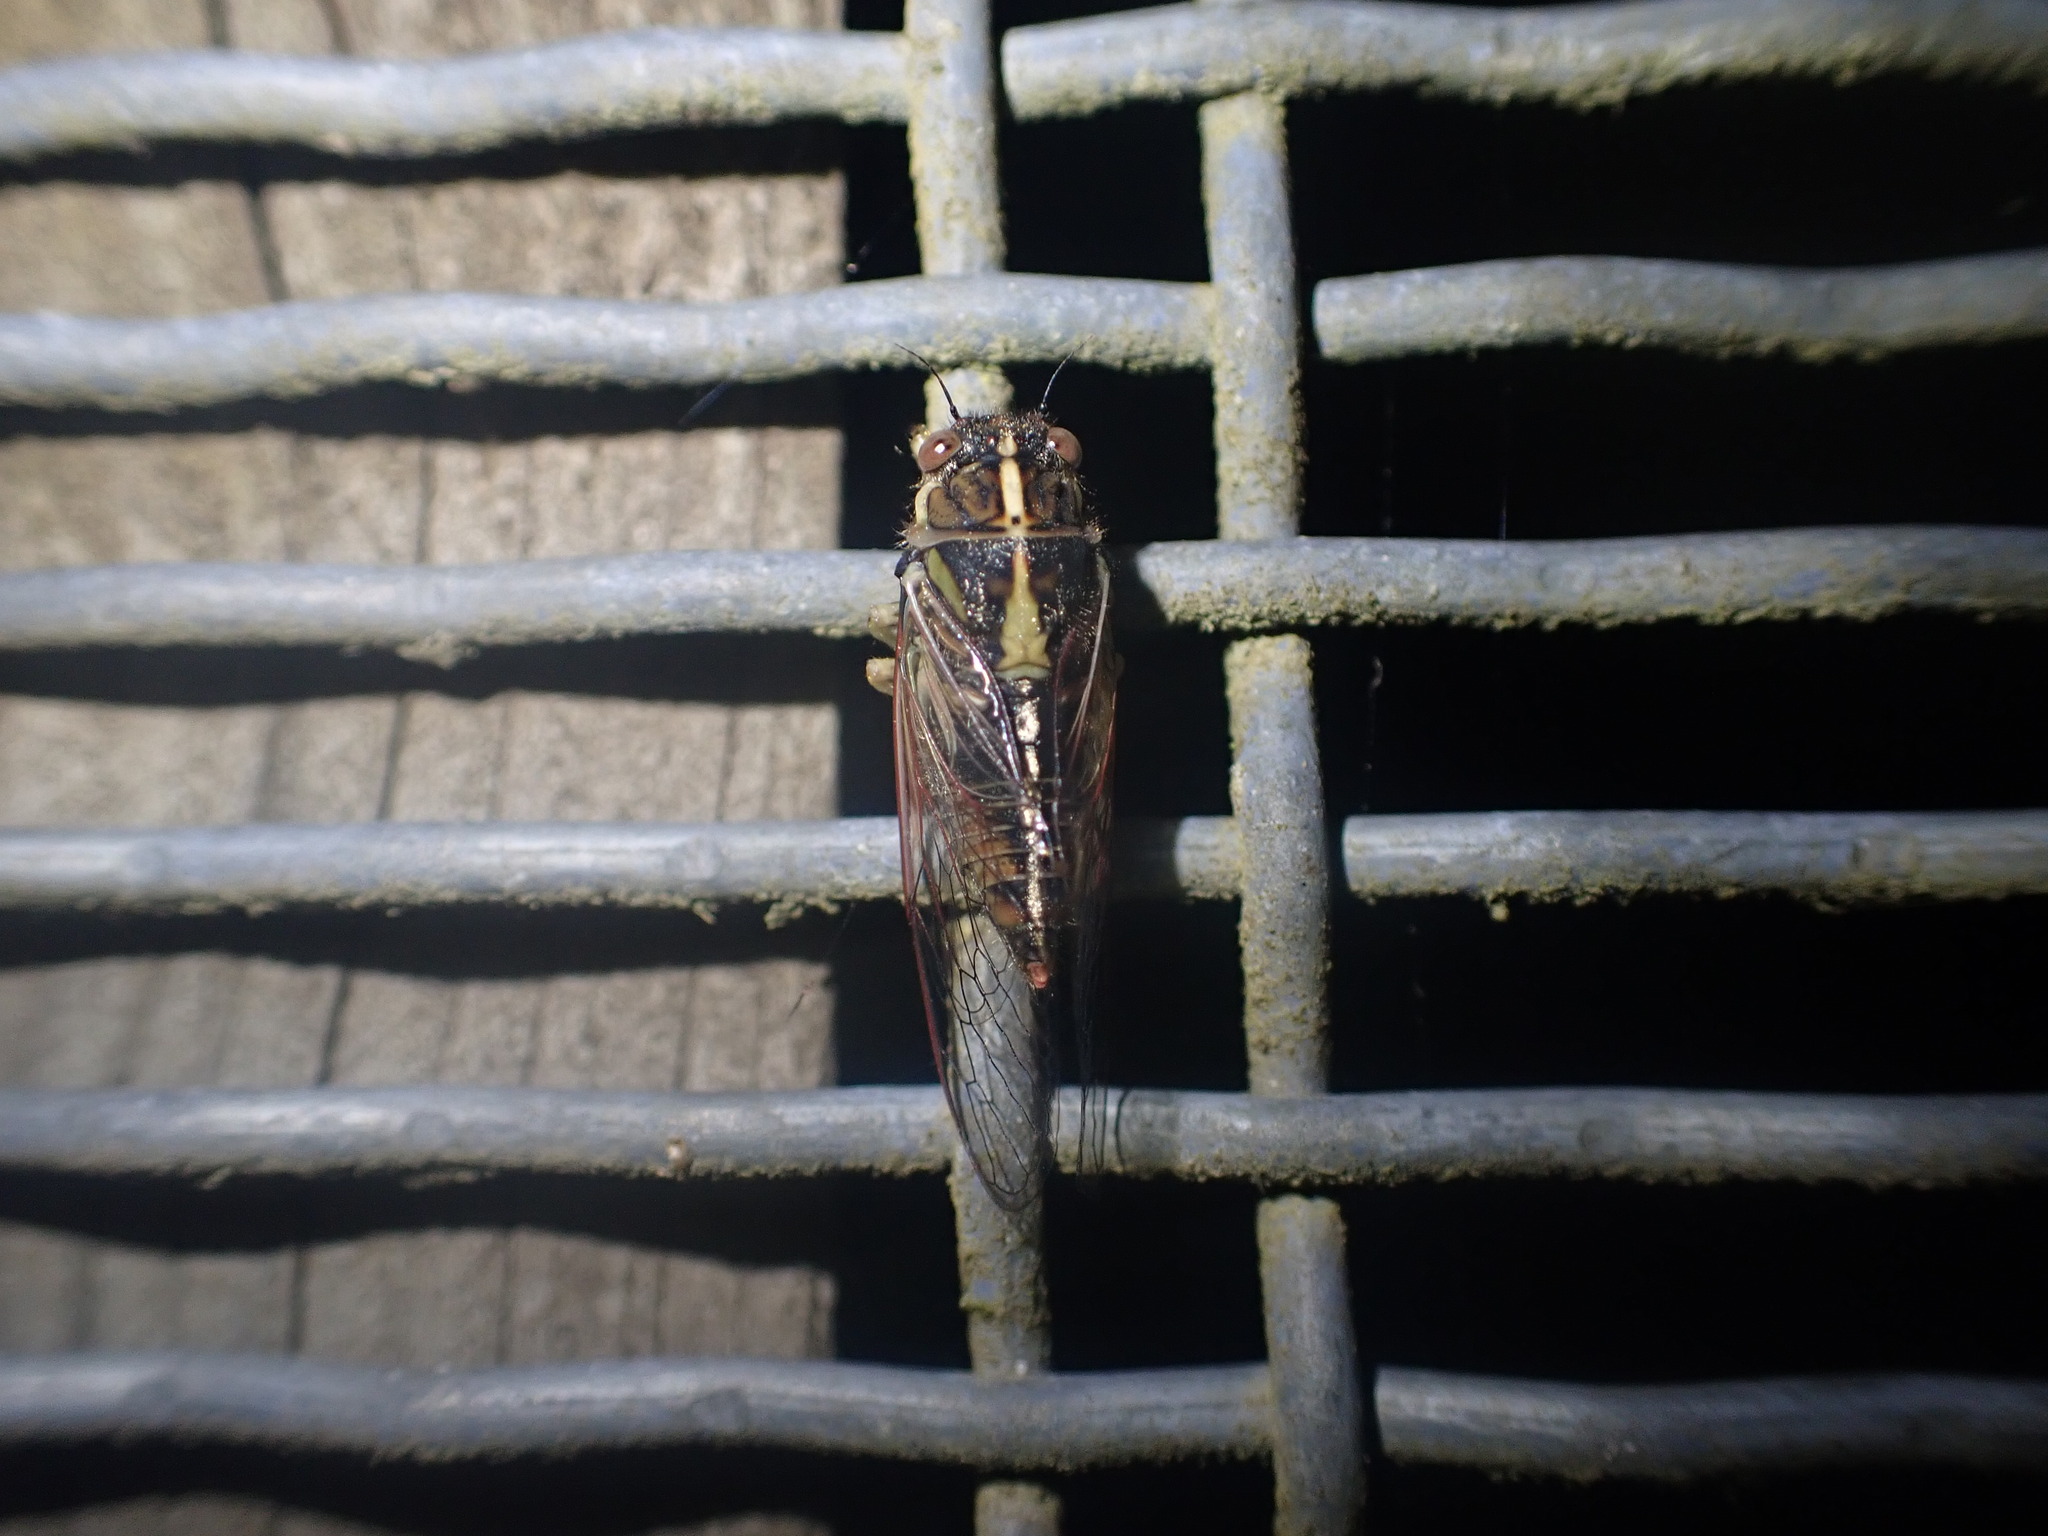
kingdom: Animalia
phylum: Arthropoda
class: Insecta
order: Hemiptera
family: Cicadidae
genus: Kikihia
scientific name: Kikihia muta
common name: Variable cicada
